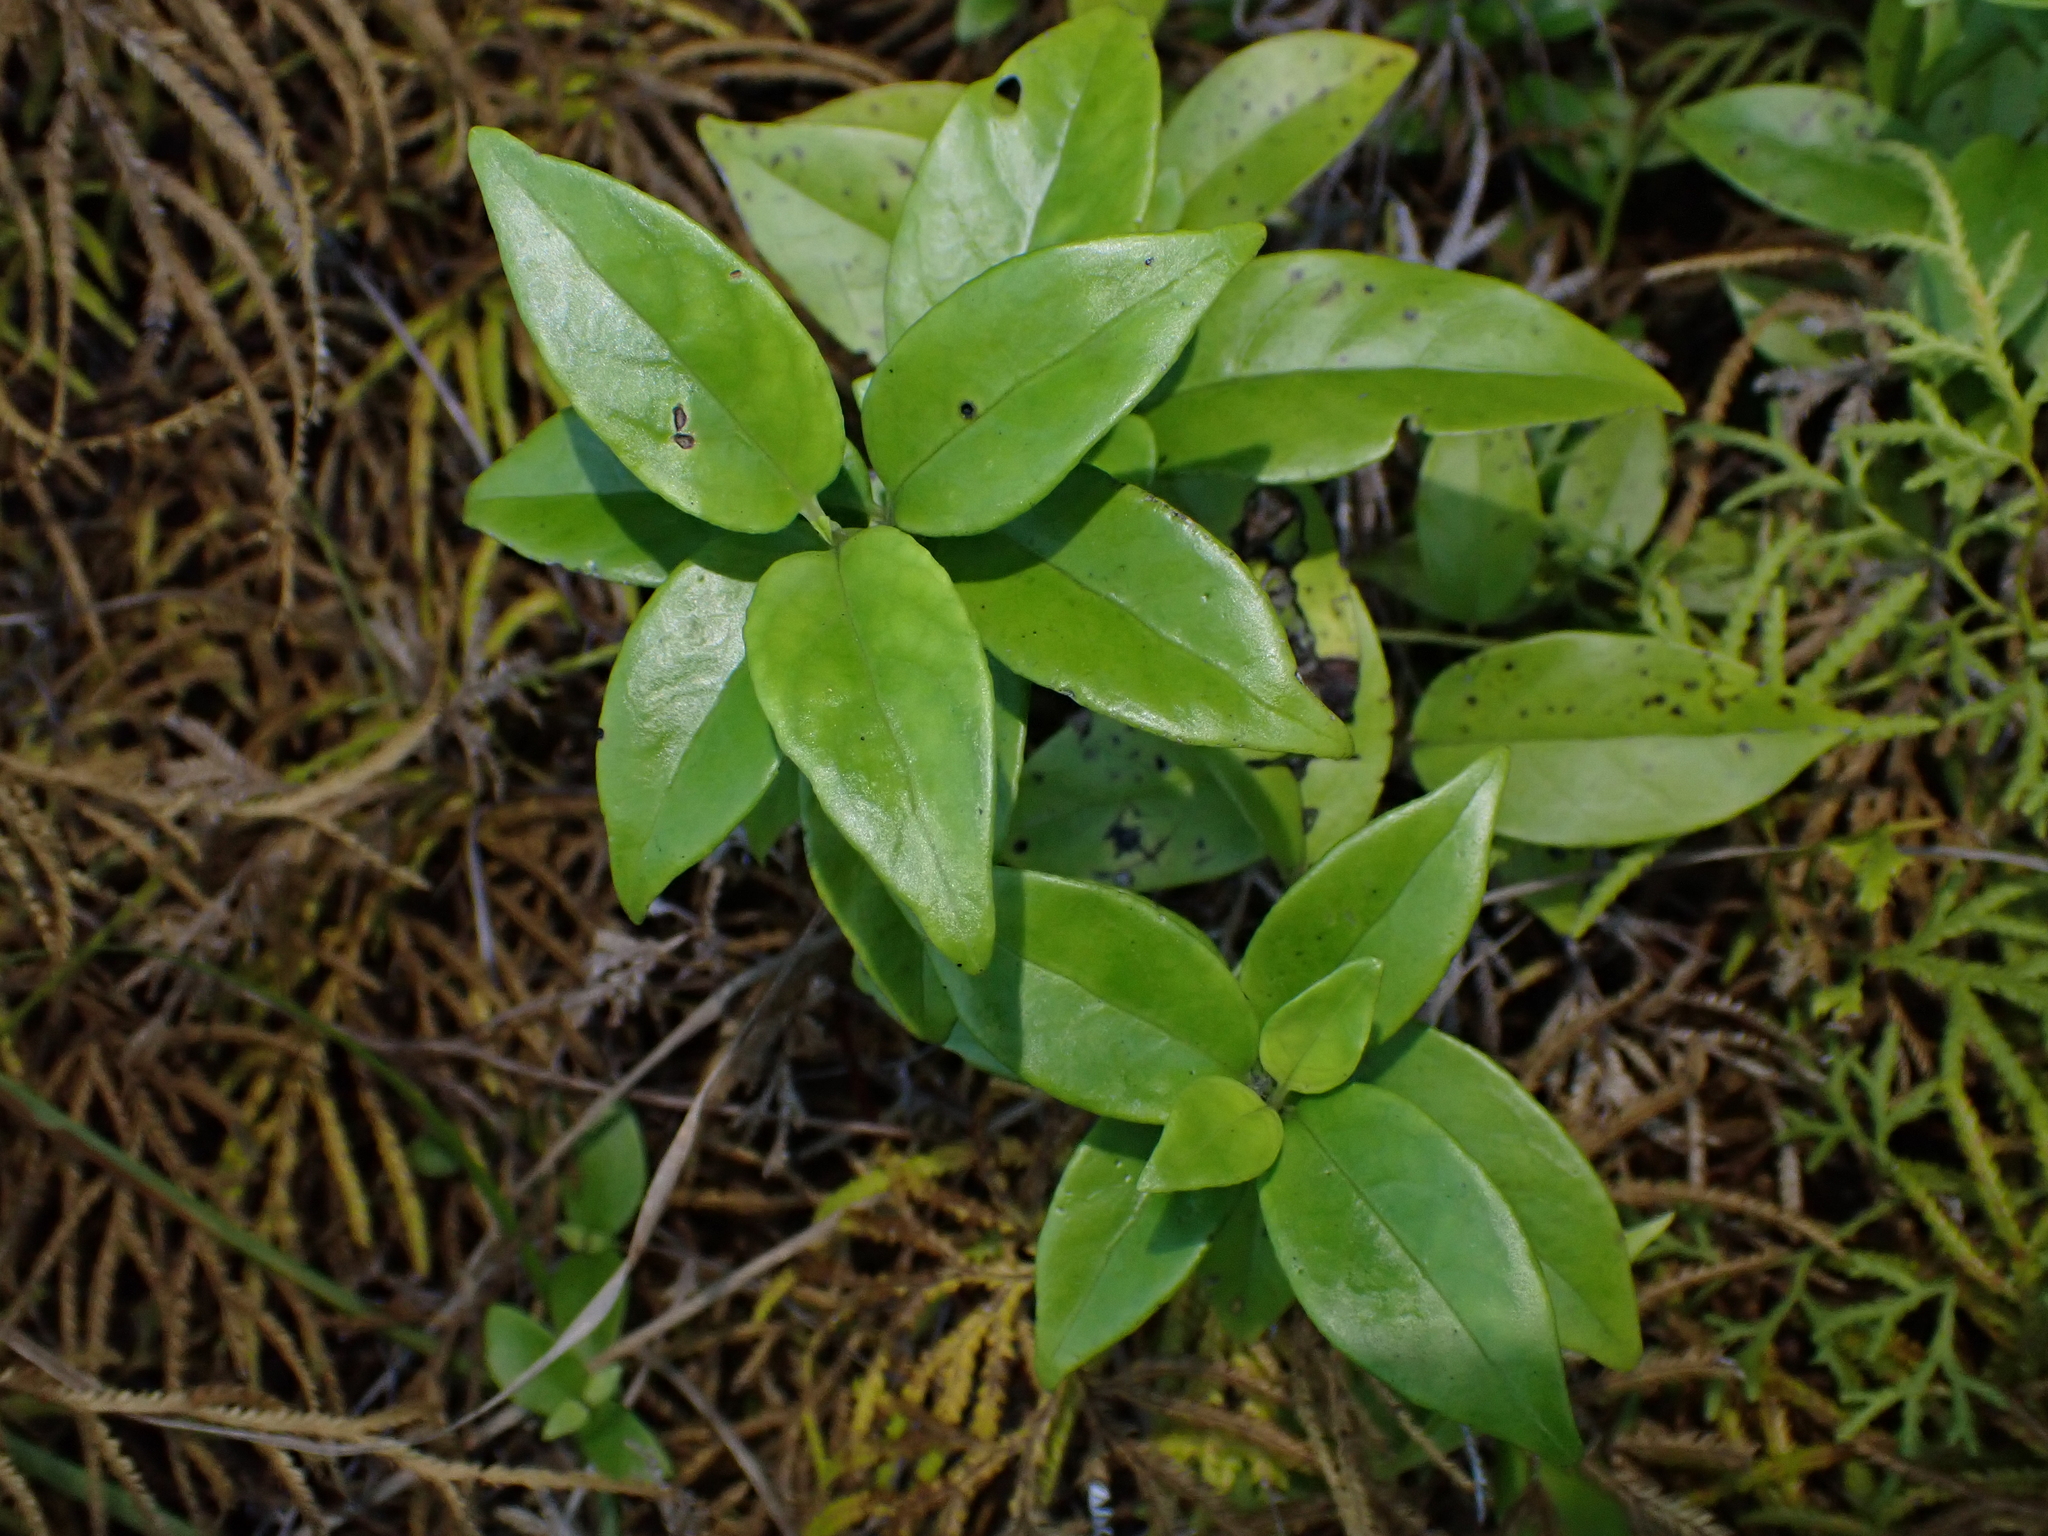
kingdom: Plantae
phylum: Tracheophyta
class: Magnoliopsida
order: Gentianales
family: Loganiaceae
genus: Geniostoma
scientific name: Geniostoma ligustrifolium
